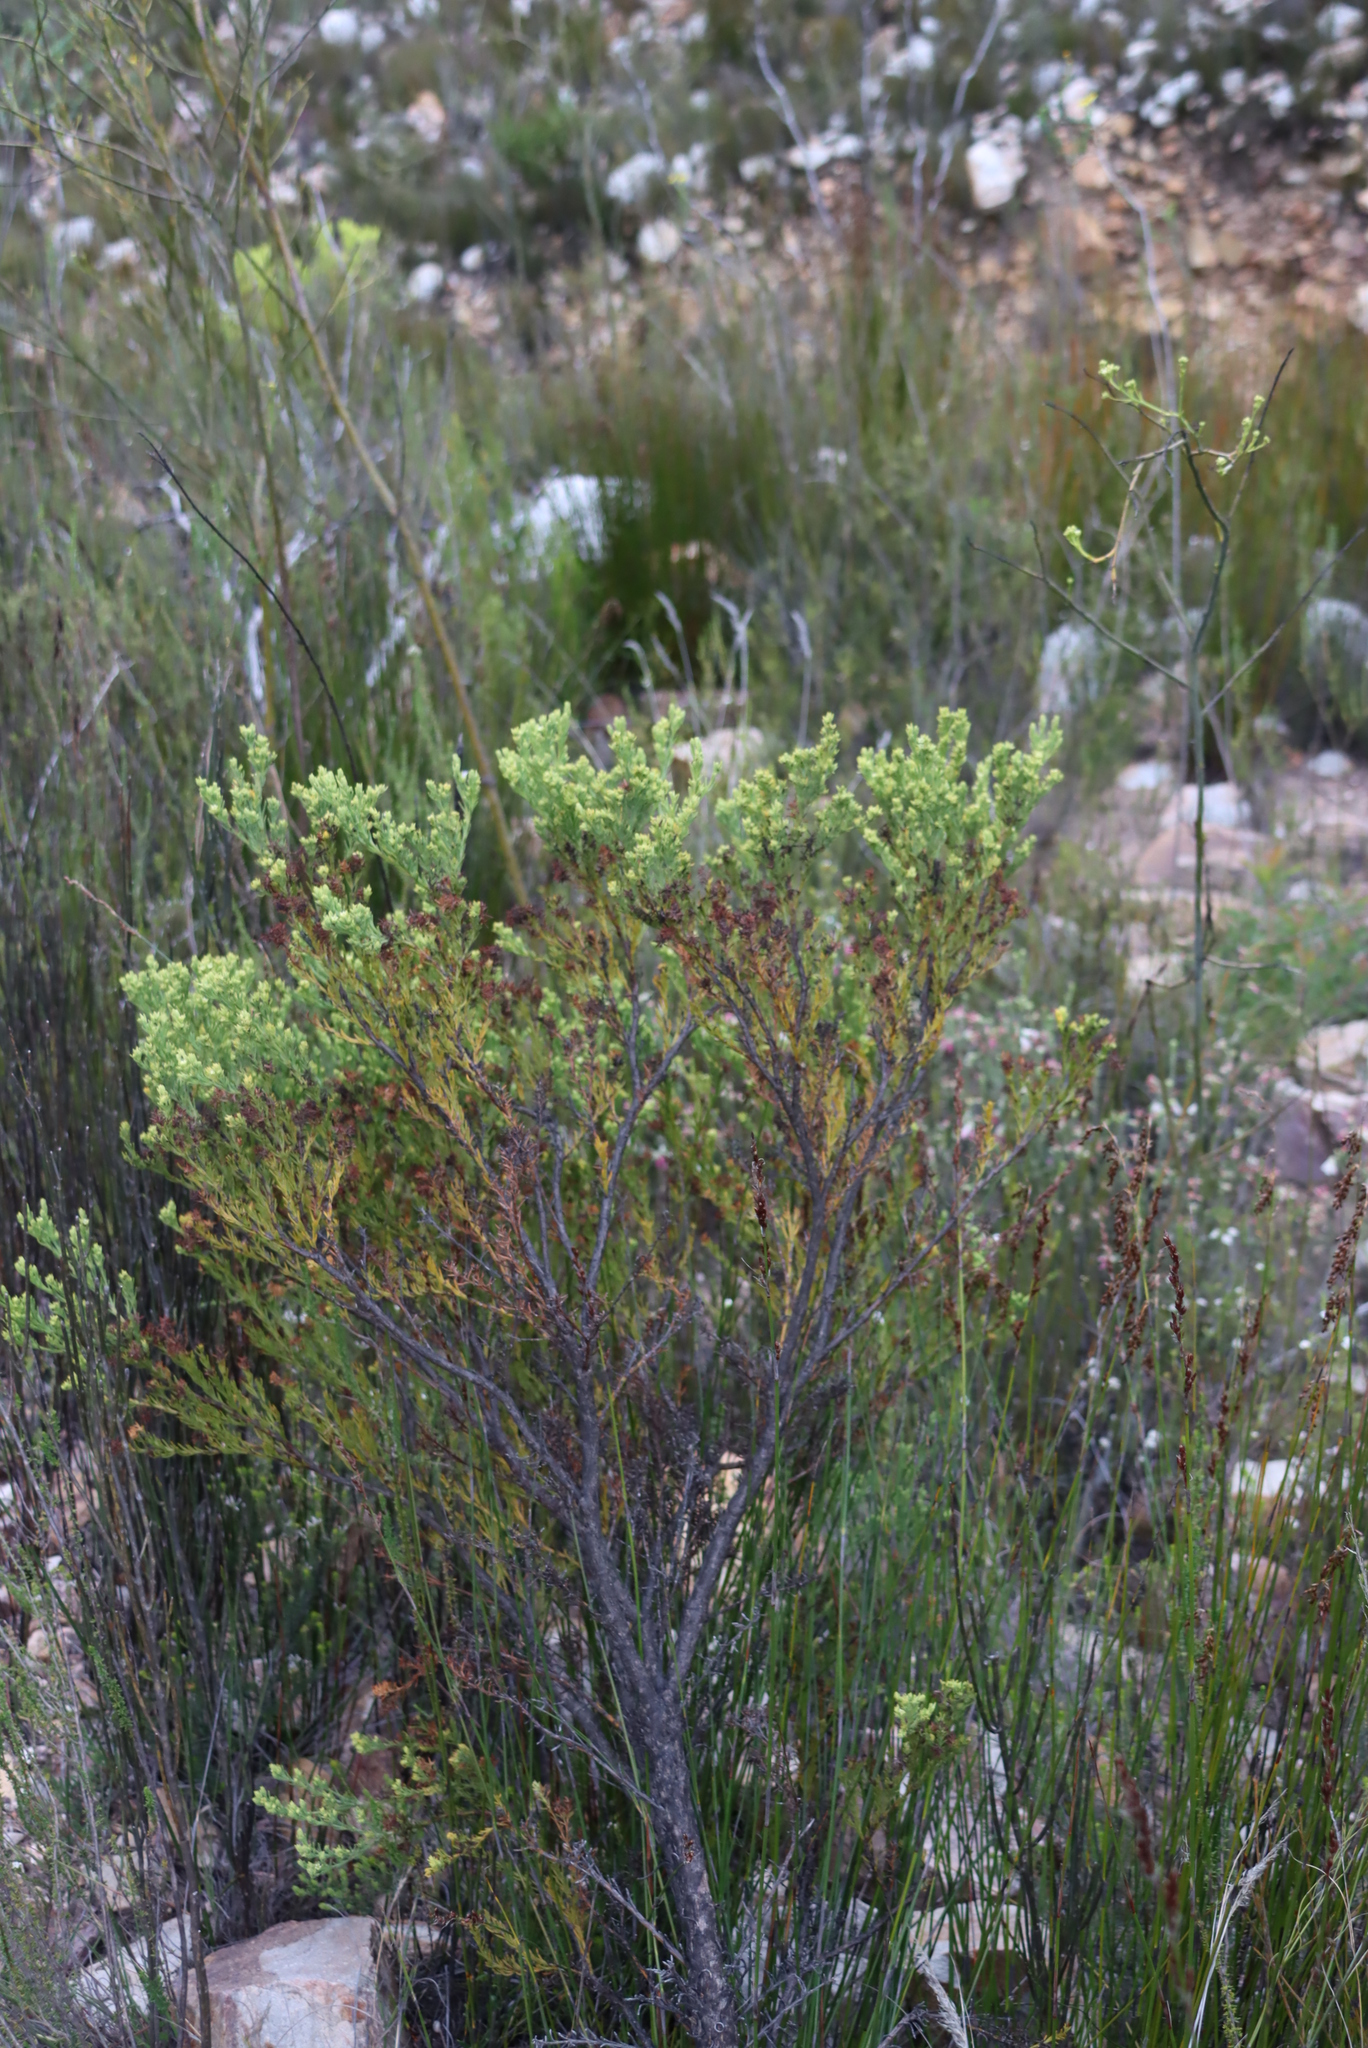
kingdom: Plantae
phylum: Tracheophyta
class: Magnoliopsida
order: Santalales
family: Thesiaceae
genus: Thesium
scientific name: Thesium foliosum
